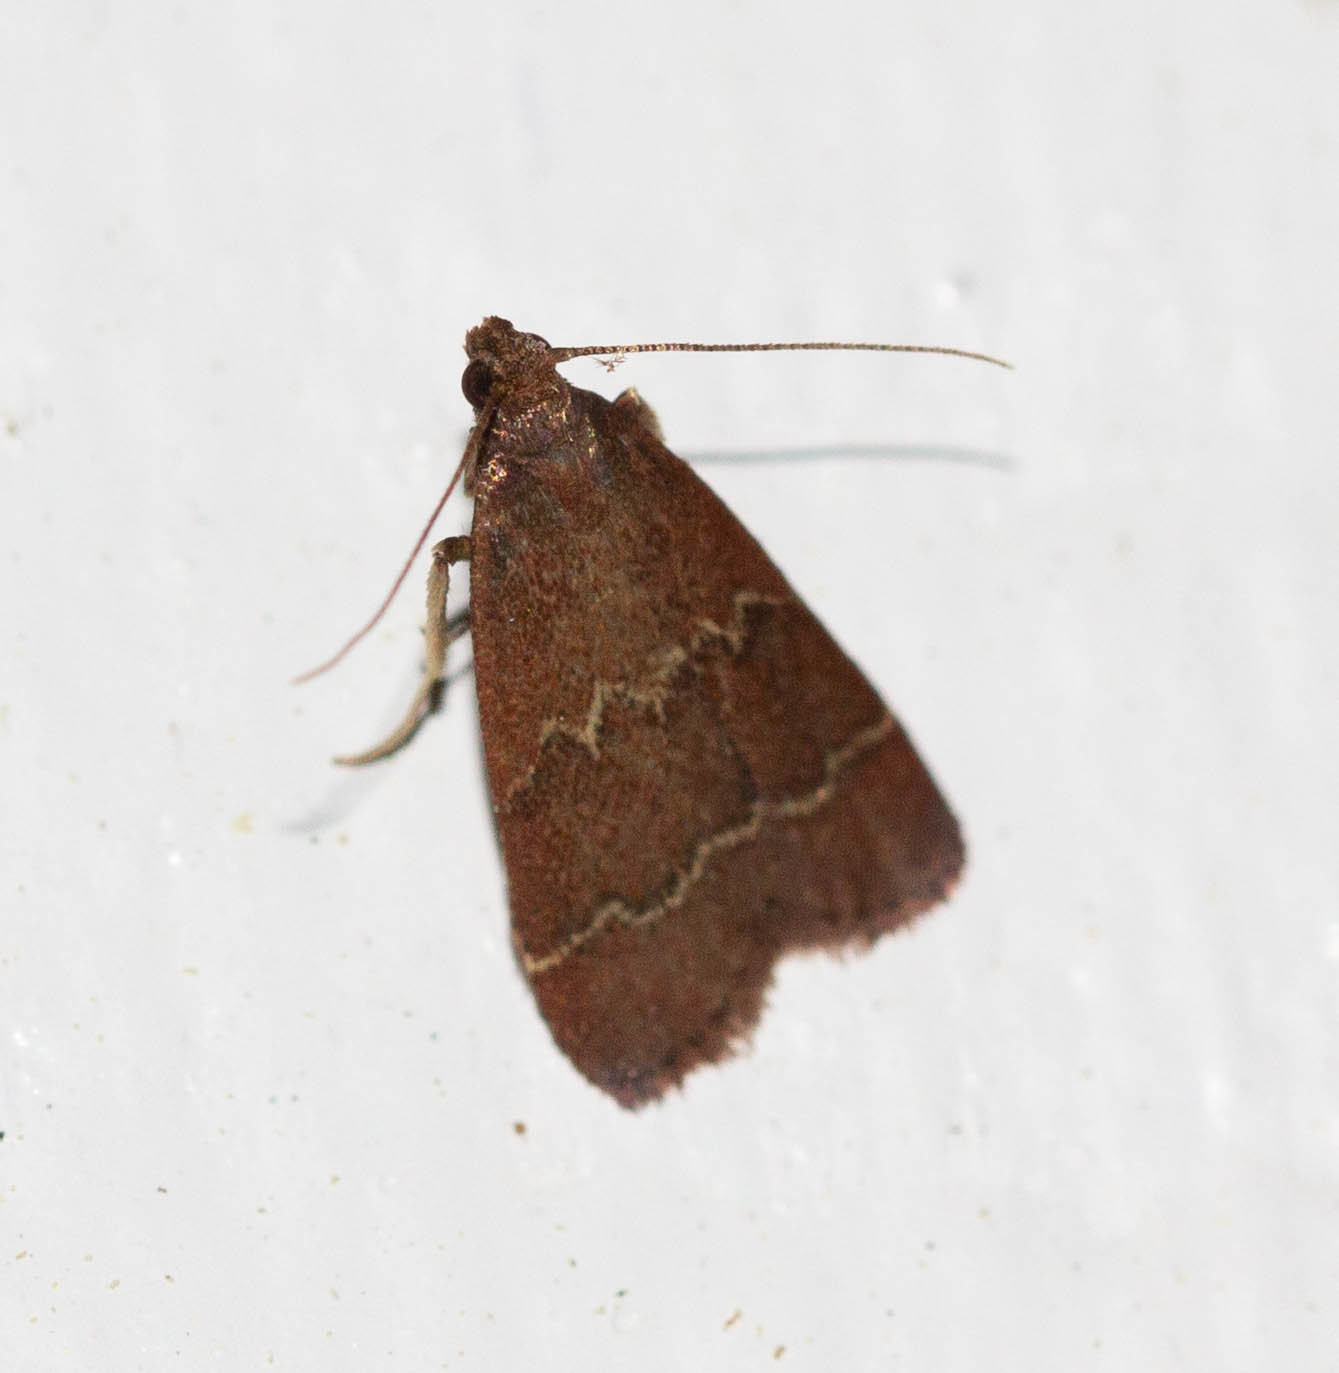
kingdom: Animalia
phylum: Arthropoda
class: Insecta
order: Lepidoptera
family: Pyralidae
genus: Arta
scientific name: Arta
